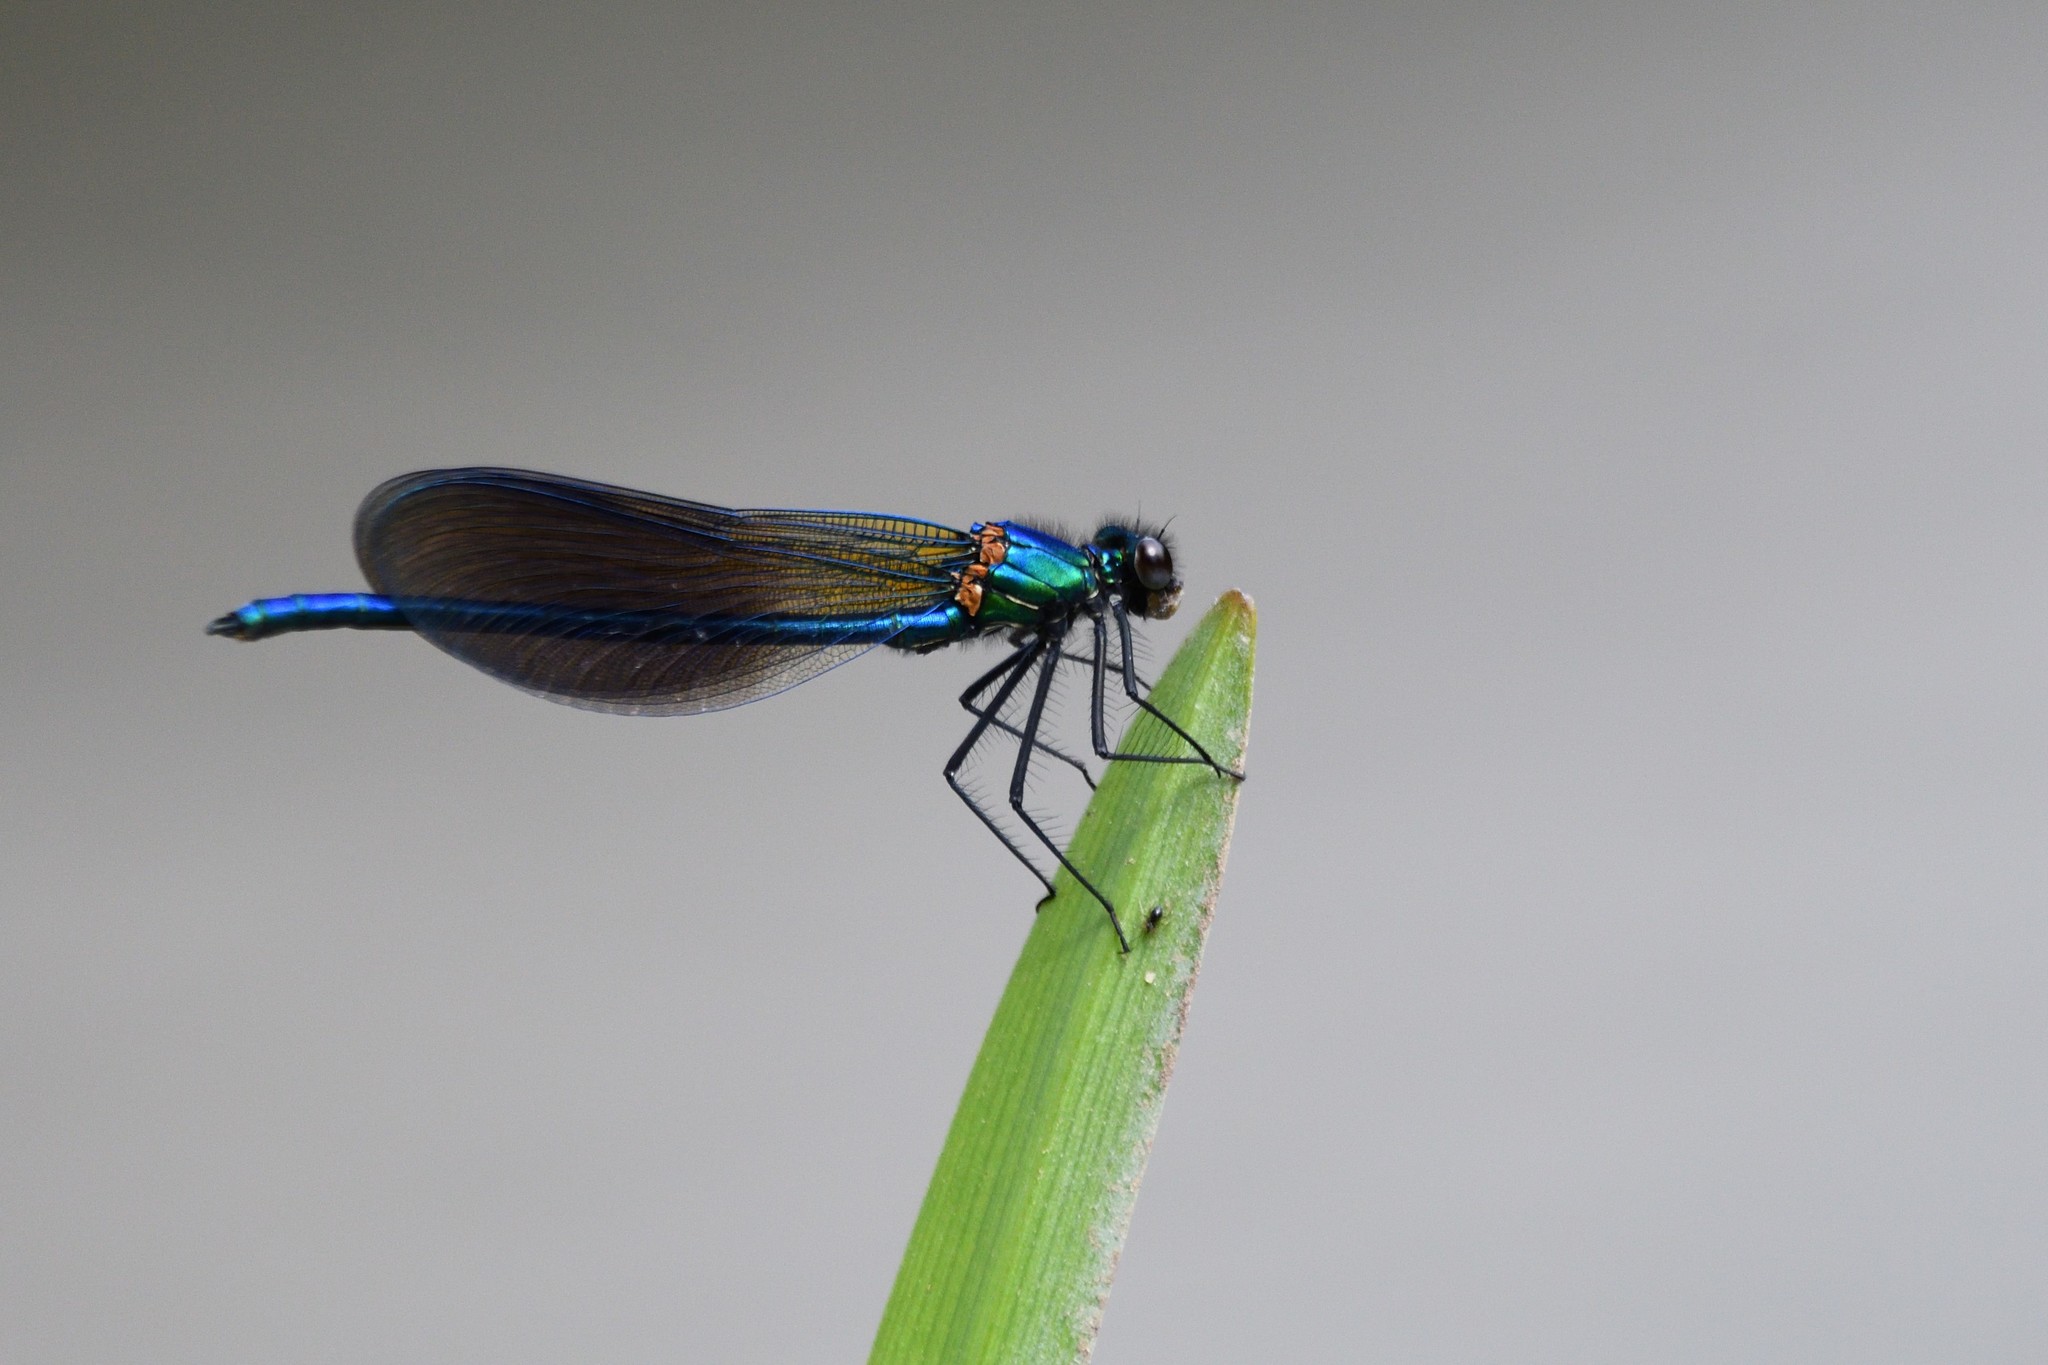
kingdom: Animalia
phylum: Arthropoda
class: Insecta
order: Odonata
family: Calopterygidae
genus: Calopteryx
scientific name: Calopteryx xanthostoma
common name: Western demoiselle
